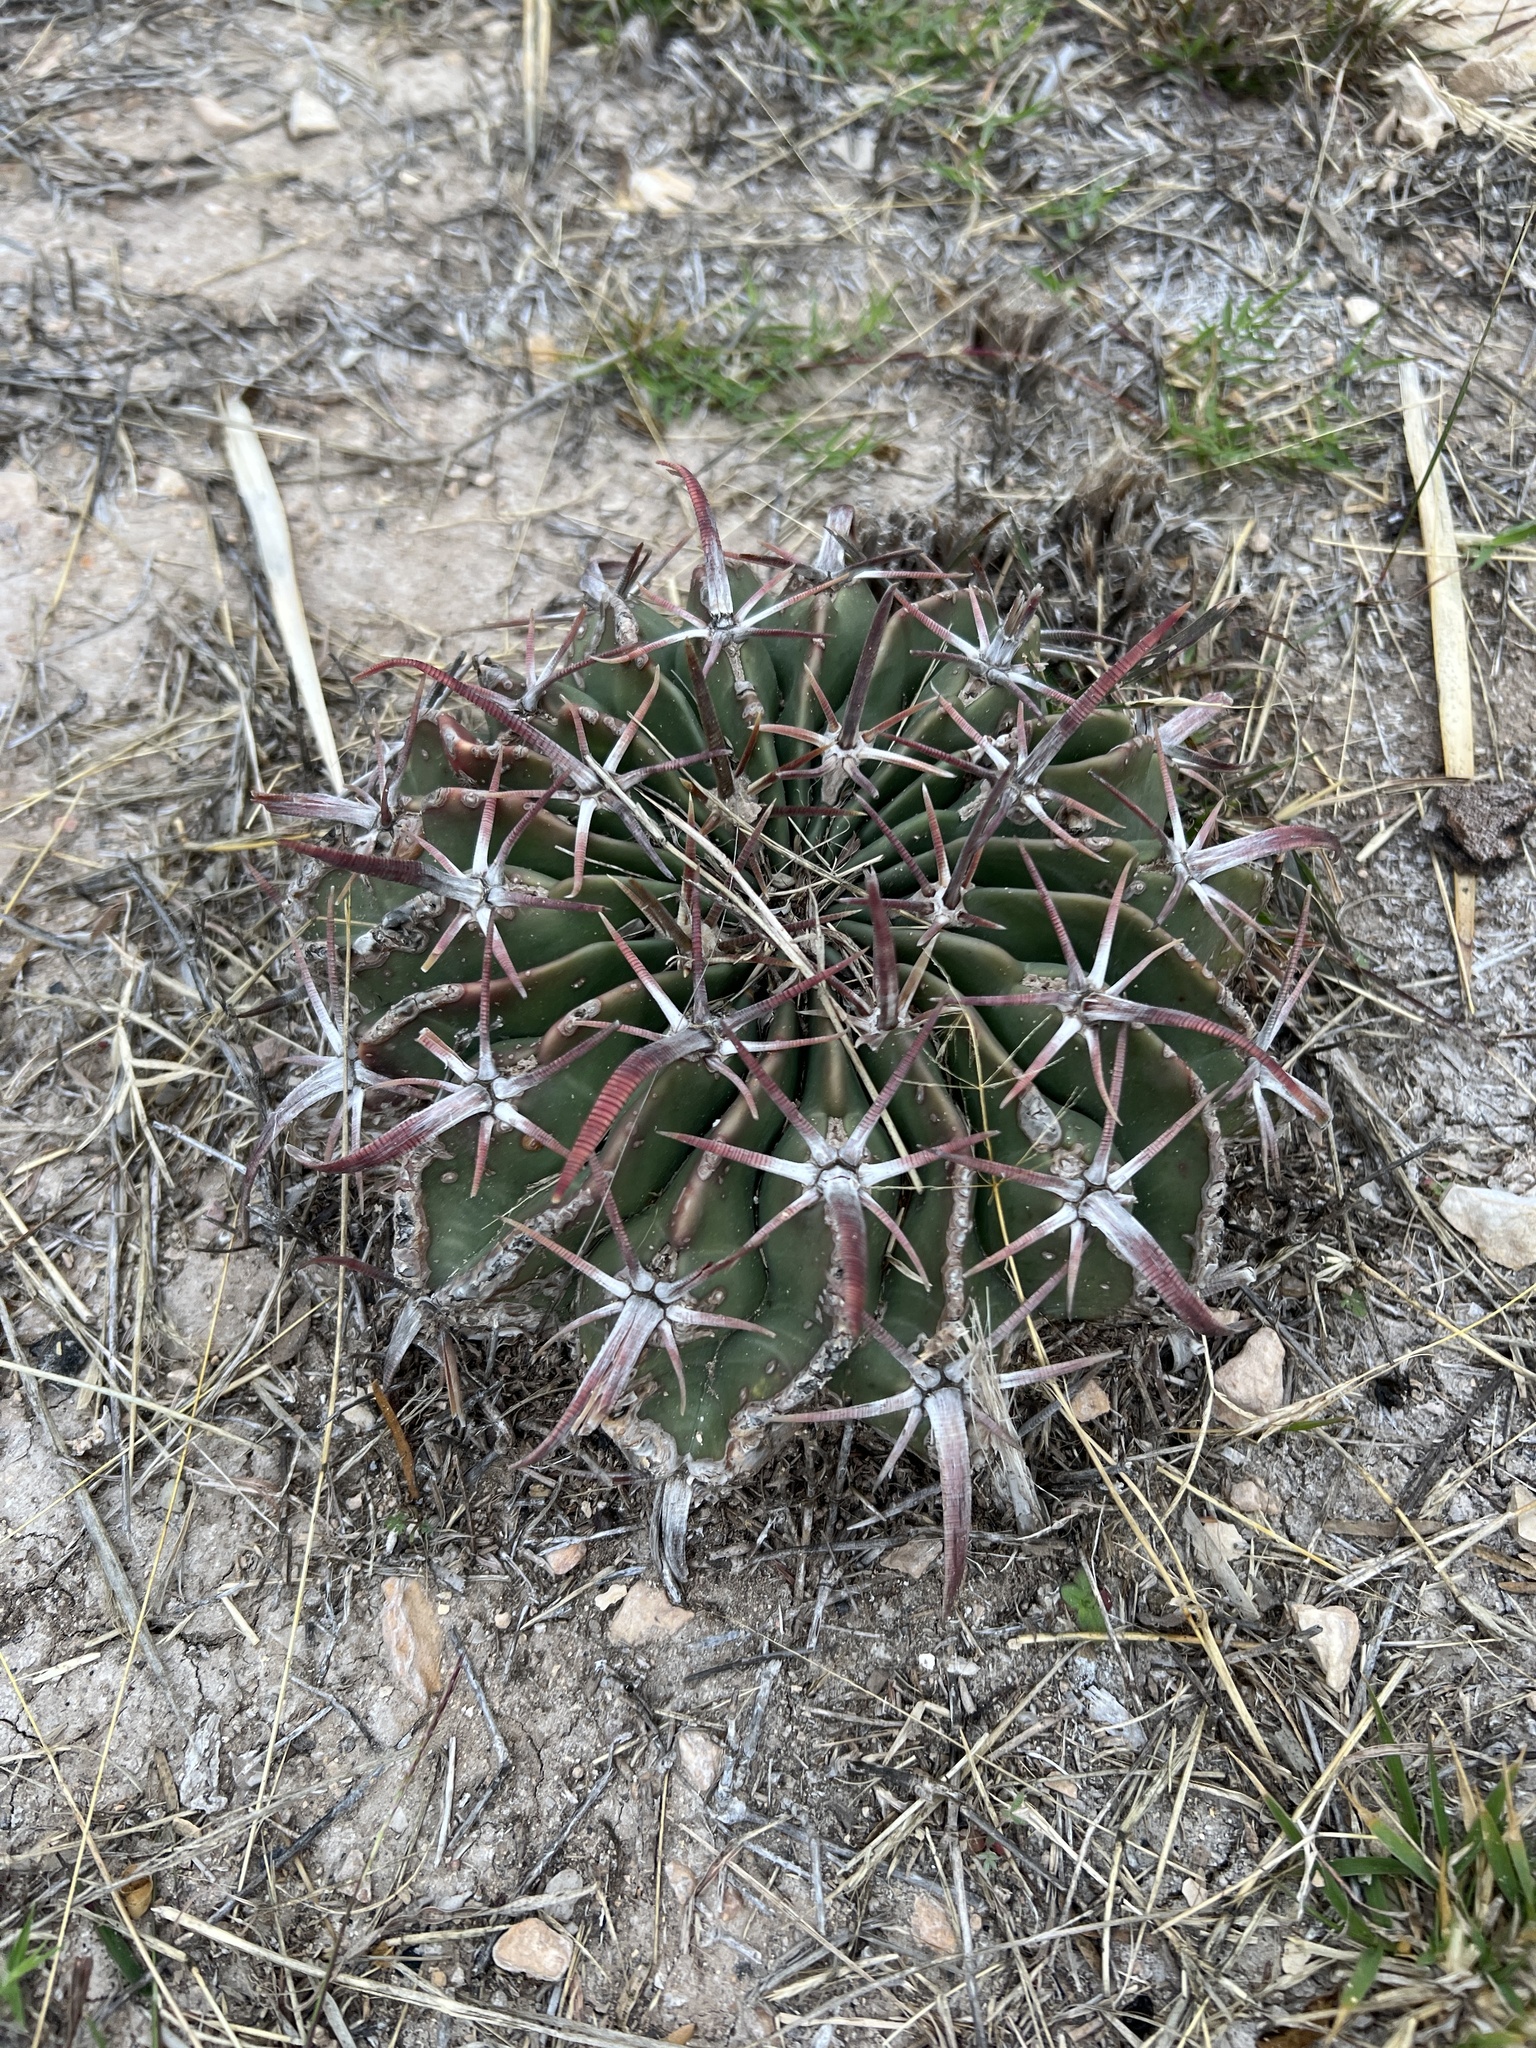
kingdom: Plantae
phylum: Tracheophyta
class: Magnoliopsida
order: Caryophyllales
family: Cactaceae
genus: Echinocactus
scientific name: Echinocactus texensis
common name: Devil's pincushion
